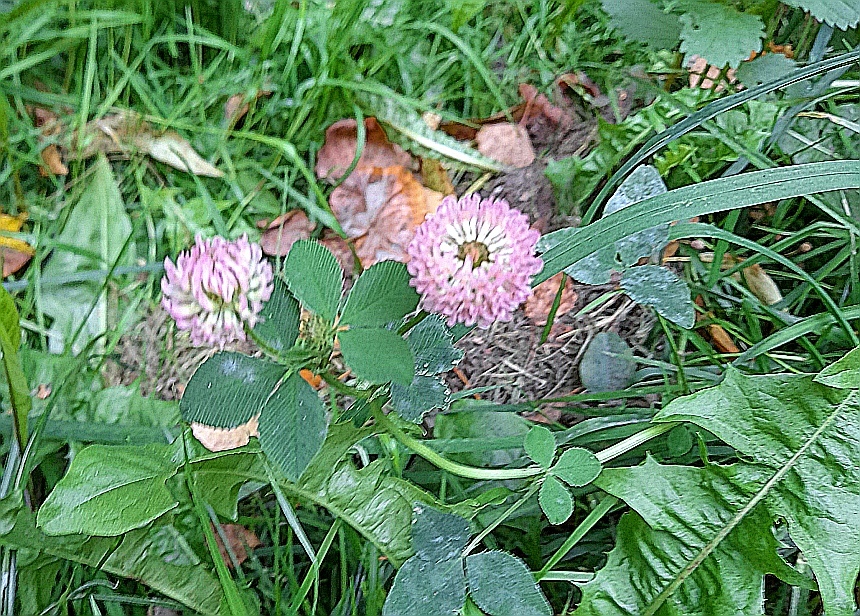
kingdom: Plantae
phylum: Tracheophyta
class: Magnoliopsida
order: Fabales
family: Fabaceae
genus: Trifolium
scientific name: Trifolium hybridum
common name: Alsike clover
